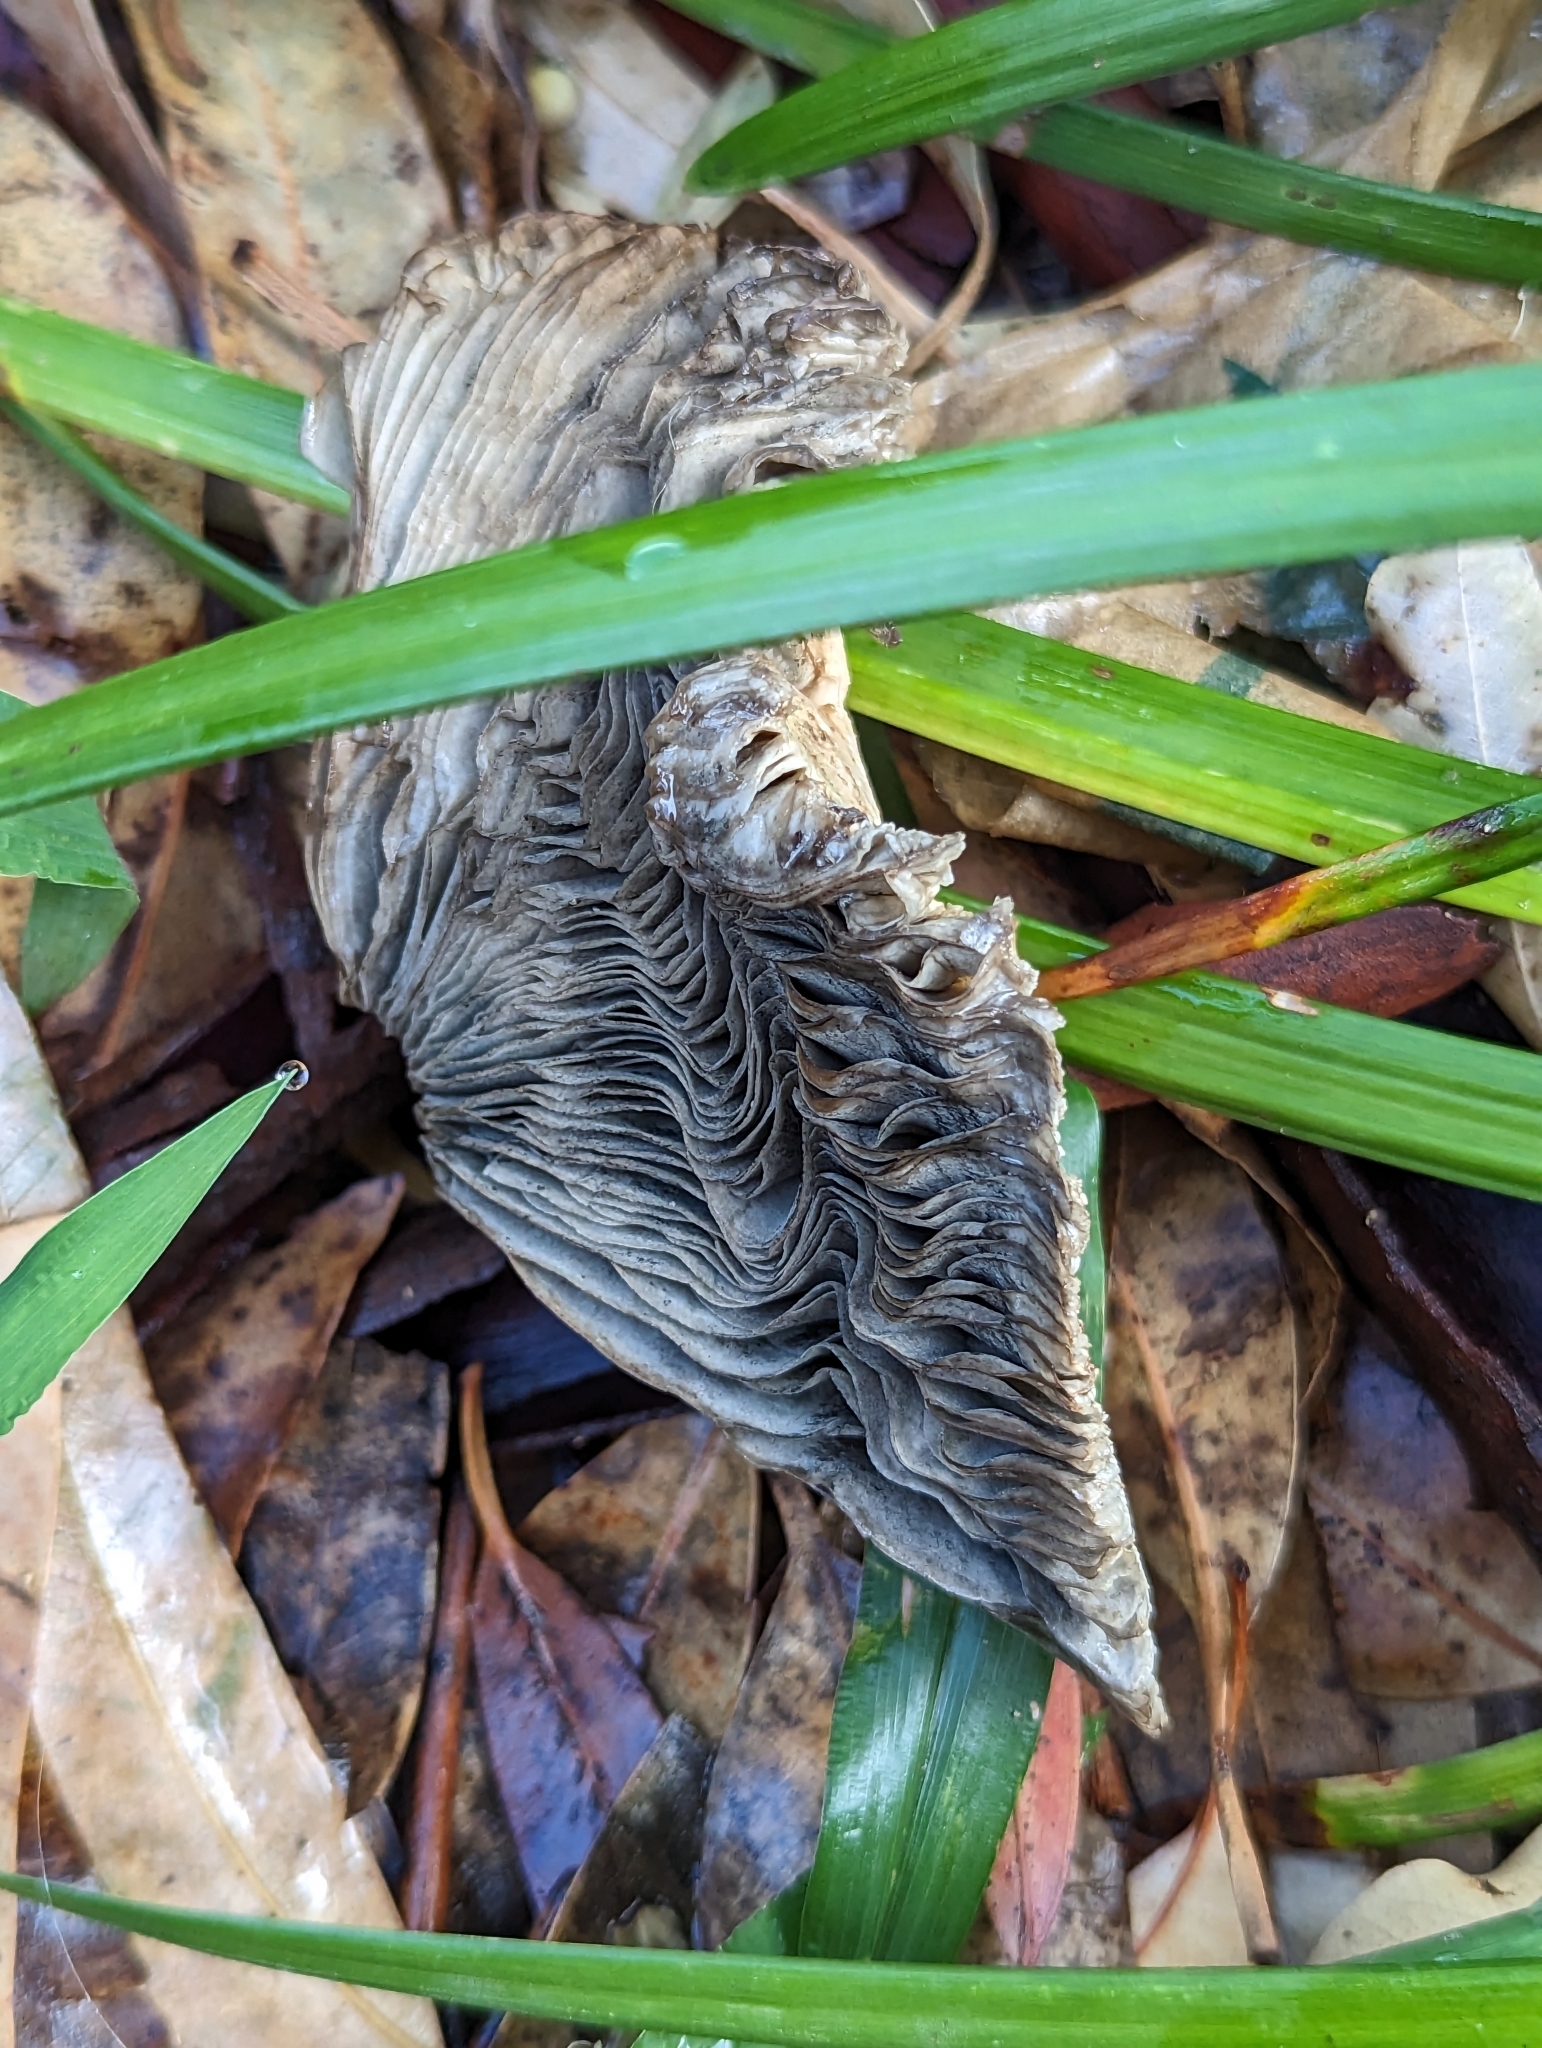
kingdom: Fungi
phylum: Basidiomycota
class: Agaricomycetes
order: Agaricales
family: Agaricaceae
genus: Chlorophyllum
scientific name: Chlorophyllum molybdites
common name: False parasol
